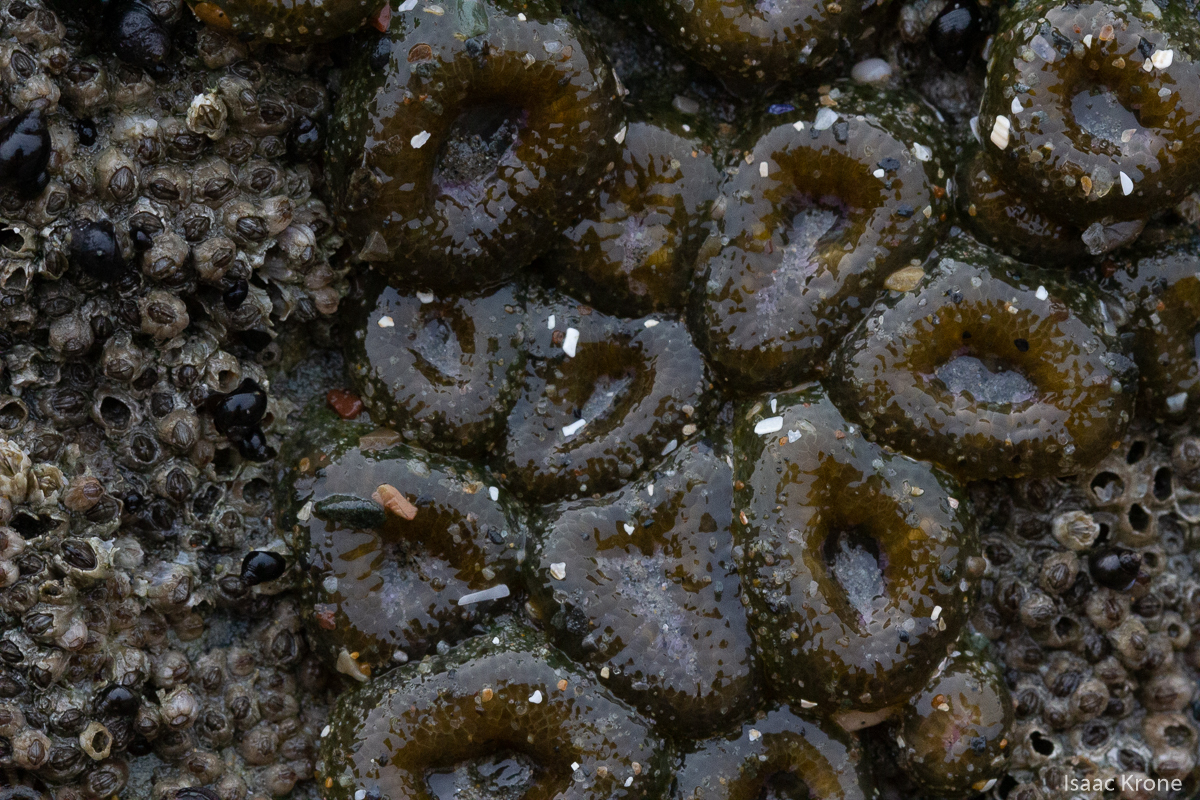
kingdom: Animalia
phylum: Cnidaria
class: Anthozoa
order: Actiniaria
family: Actiniidae
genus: Anthopleura
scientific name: Anthopleura elegantissima
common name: Clonal anemone
